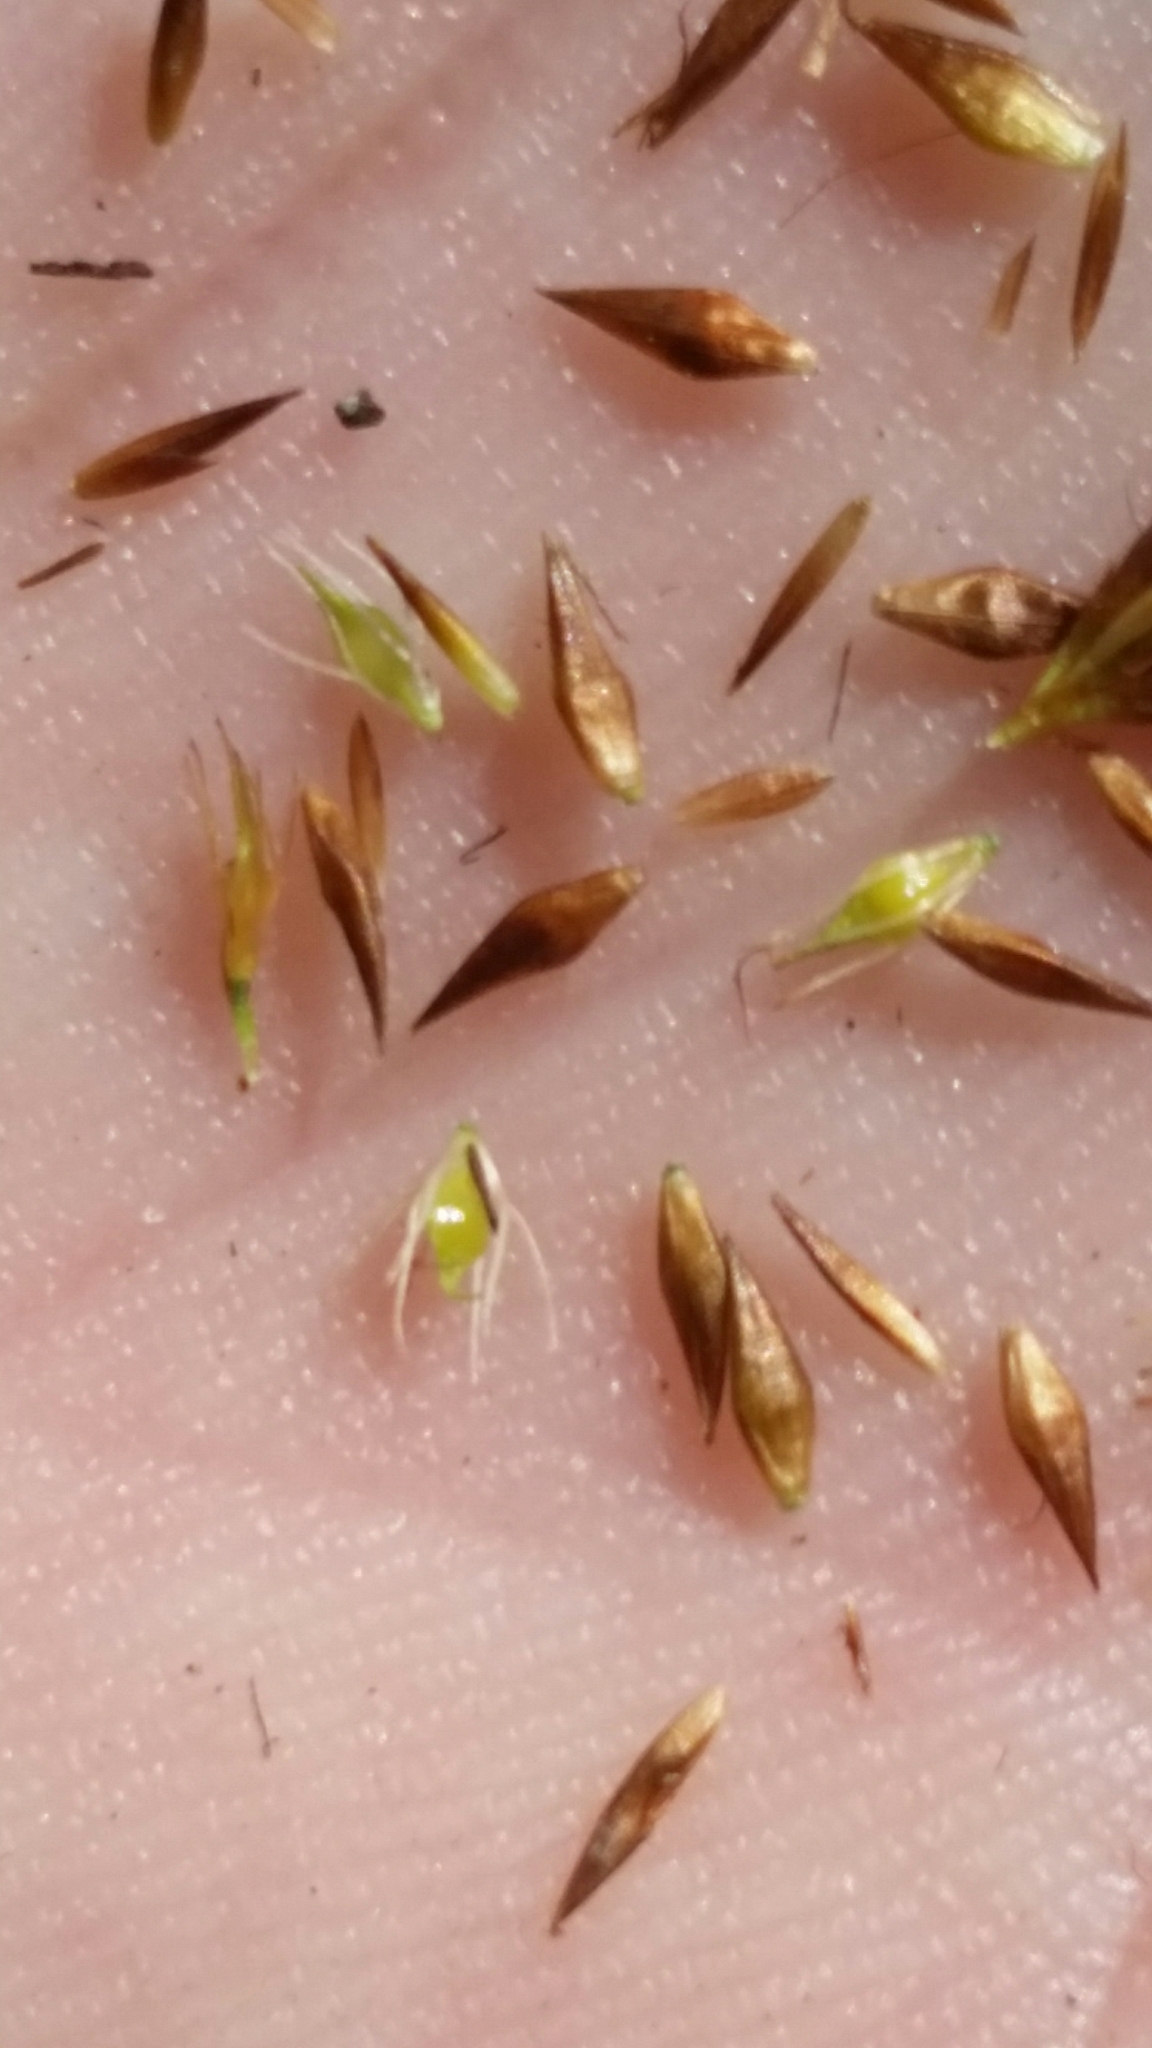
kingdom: Plantae
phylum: Tracheophyta
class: Liliopsida
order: Poales
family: Cyperaceae
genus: Rhynchospora
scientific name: Rhynchospora microcephala
